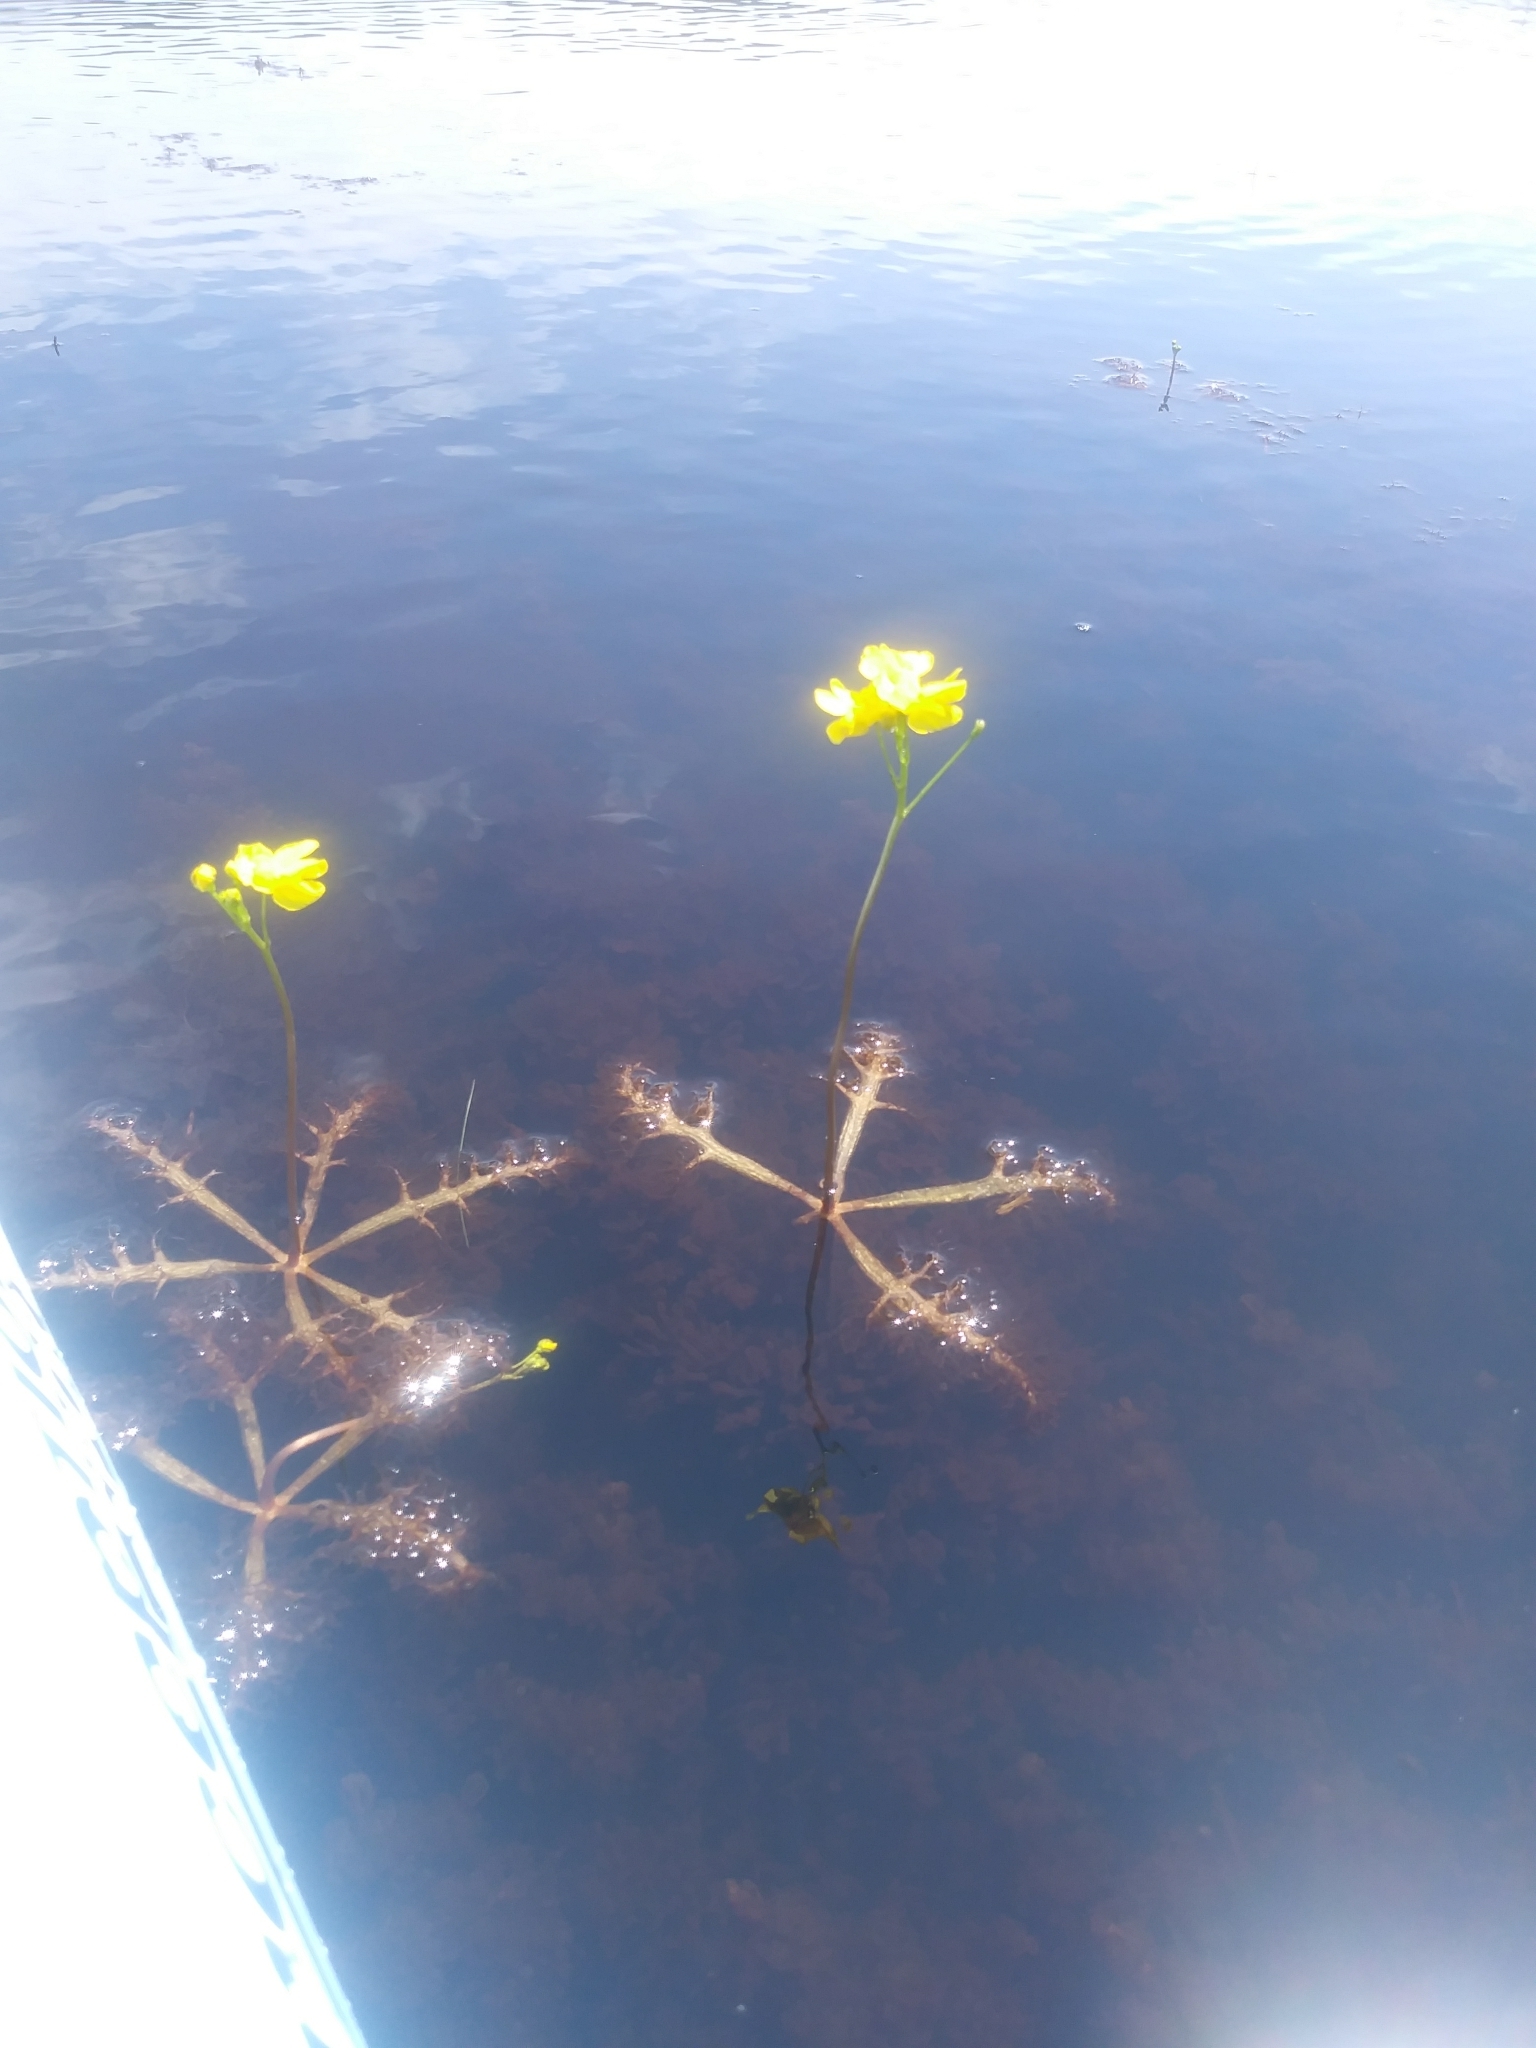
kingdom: Plantae
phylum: Tracheophyta
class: Magnoliopsida
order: Lamiales
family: Lentibulariaceae
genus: Utricularia
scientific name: Utricularia inflata
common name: Floating bladderwort
